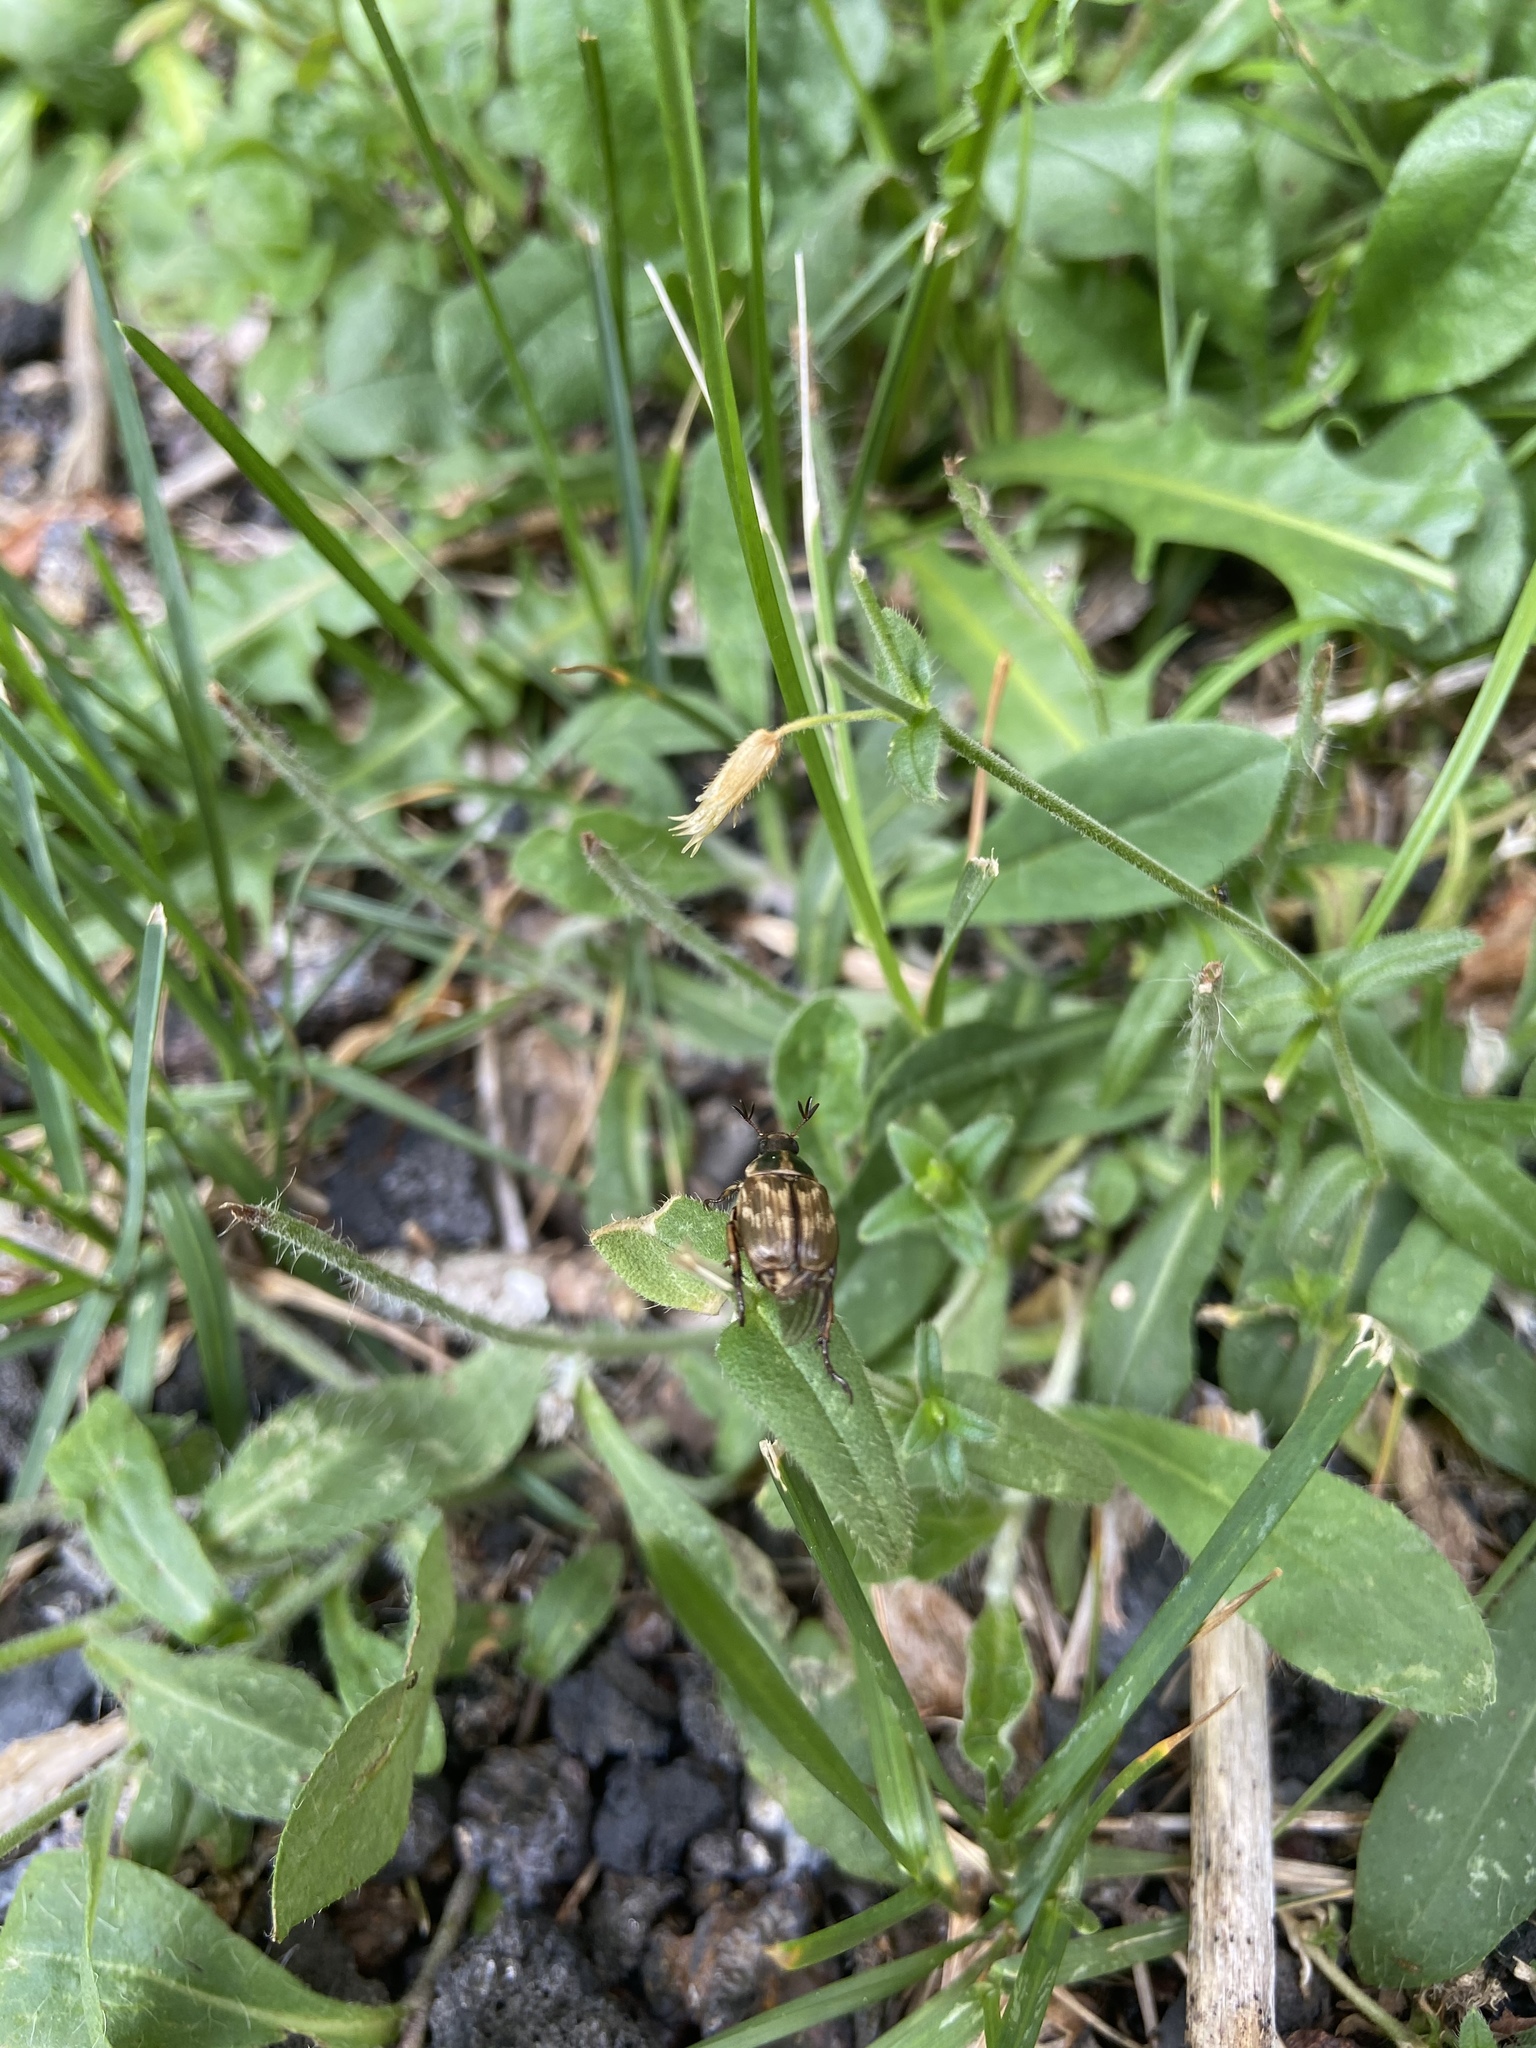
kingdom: Animalia
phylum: Arthropoda
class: Insecta
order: Coleoptera
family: Scarabaeidae
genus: Exomala
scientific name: Exomala orientalis
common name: Oriental beetle
